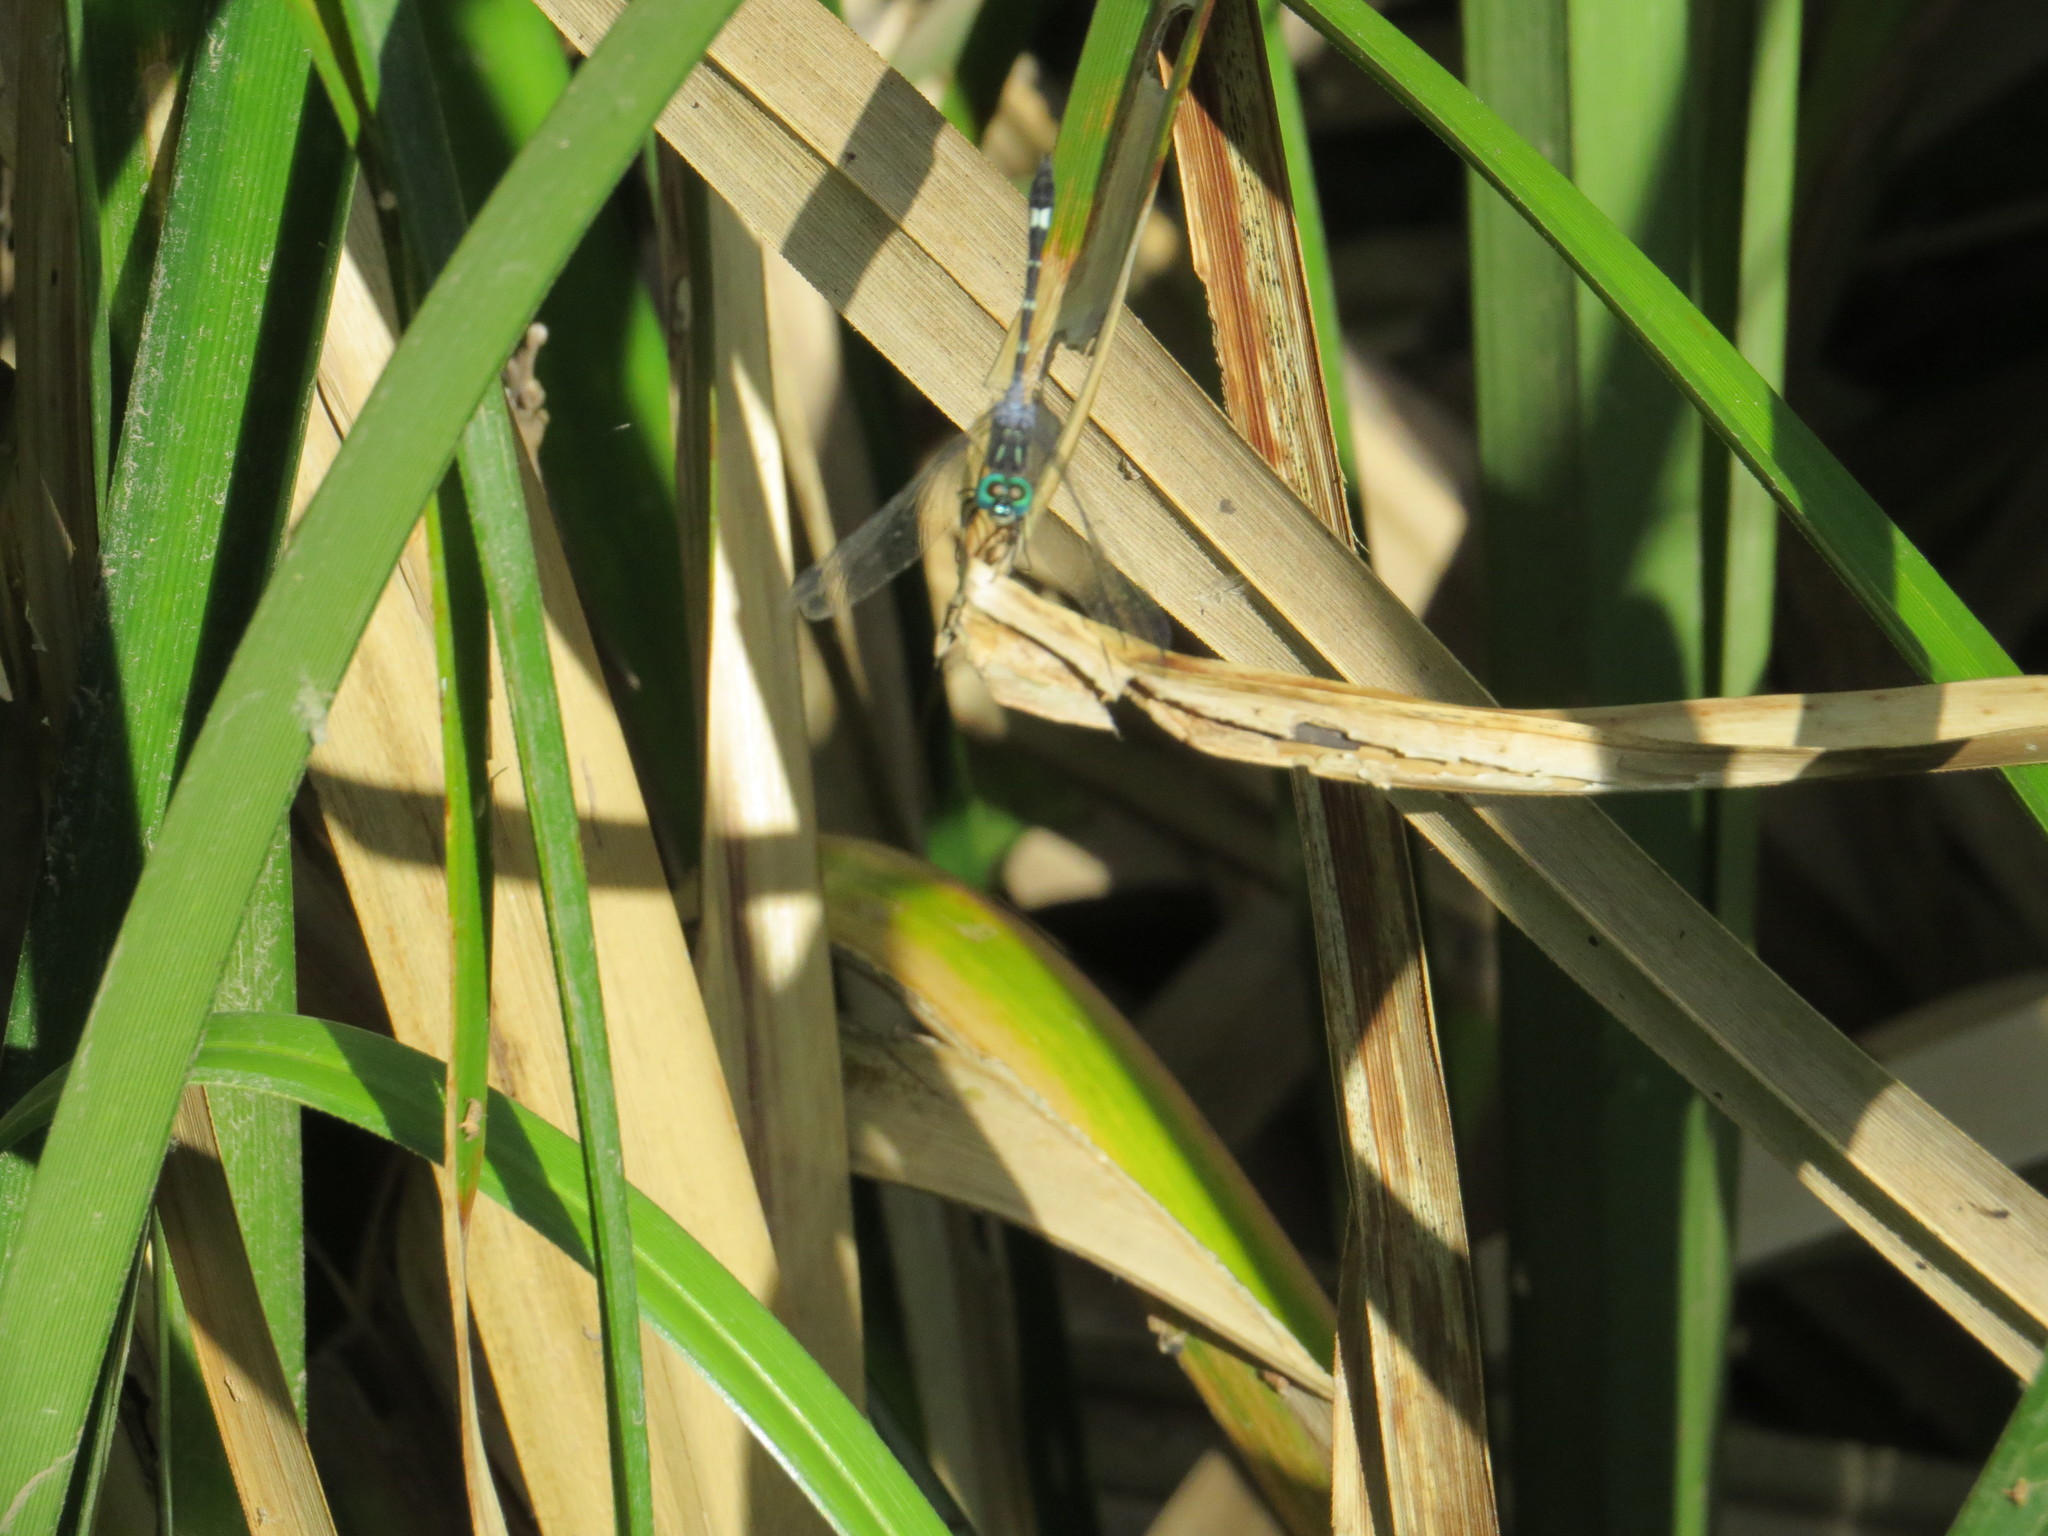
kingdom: Animalia
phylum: Arthropoda
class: Insecta
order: Odonata
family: Libellulidae
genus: Micrathyria
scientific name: Micrathyria hypodidyma
